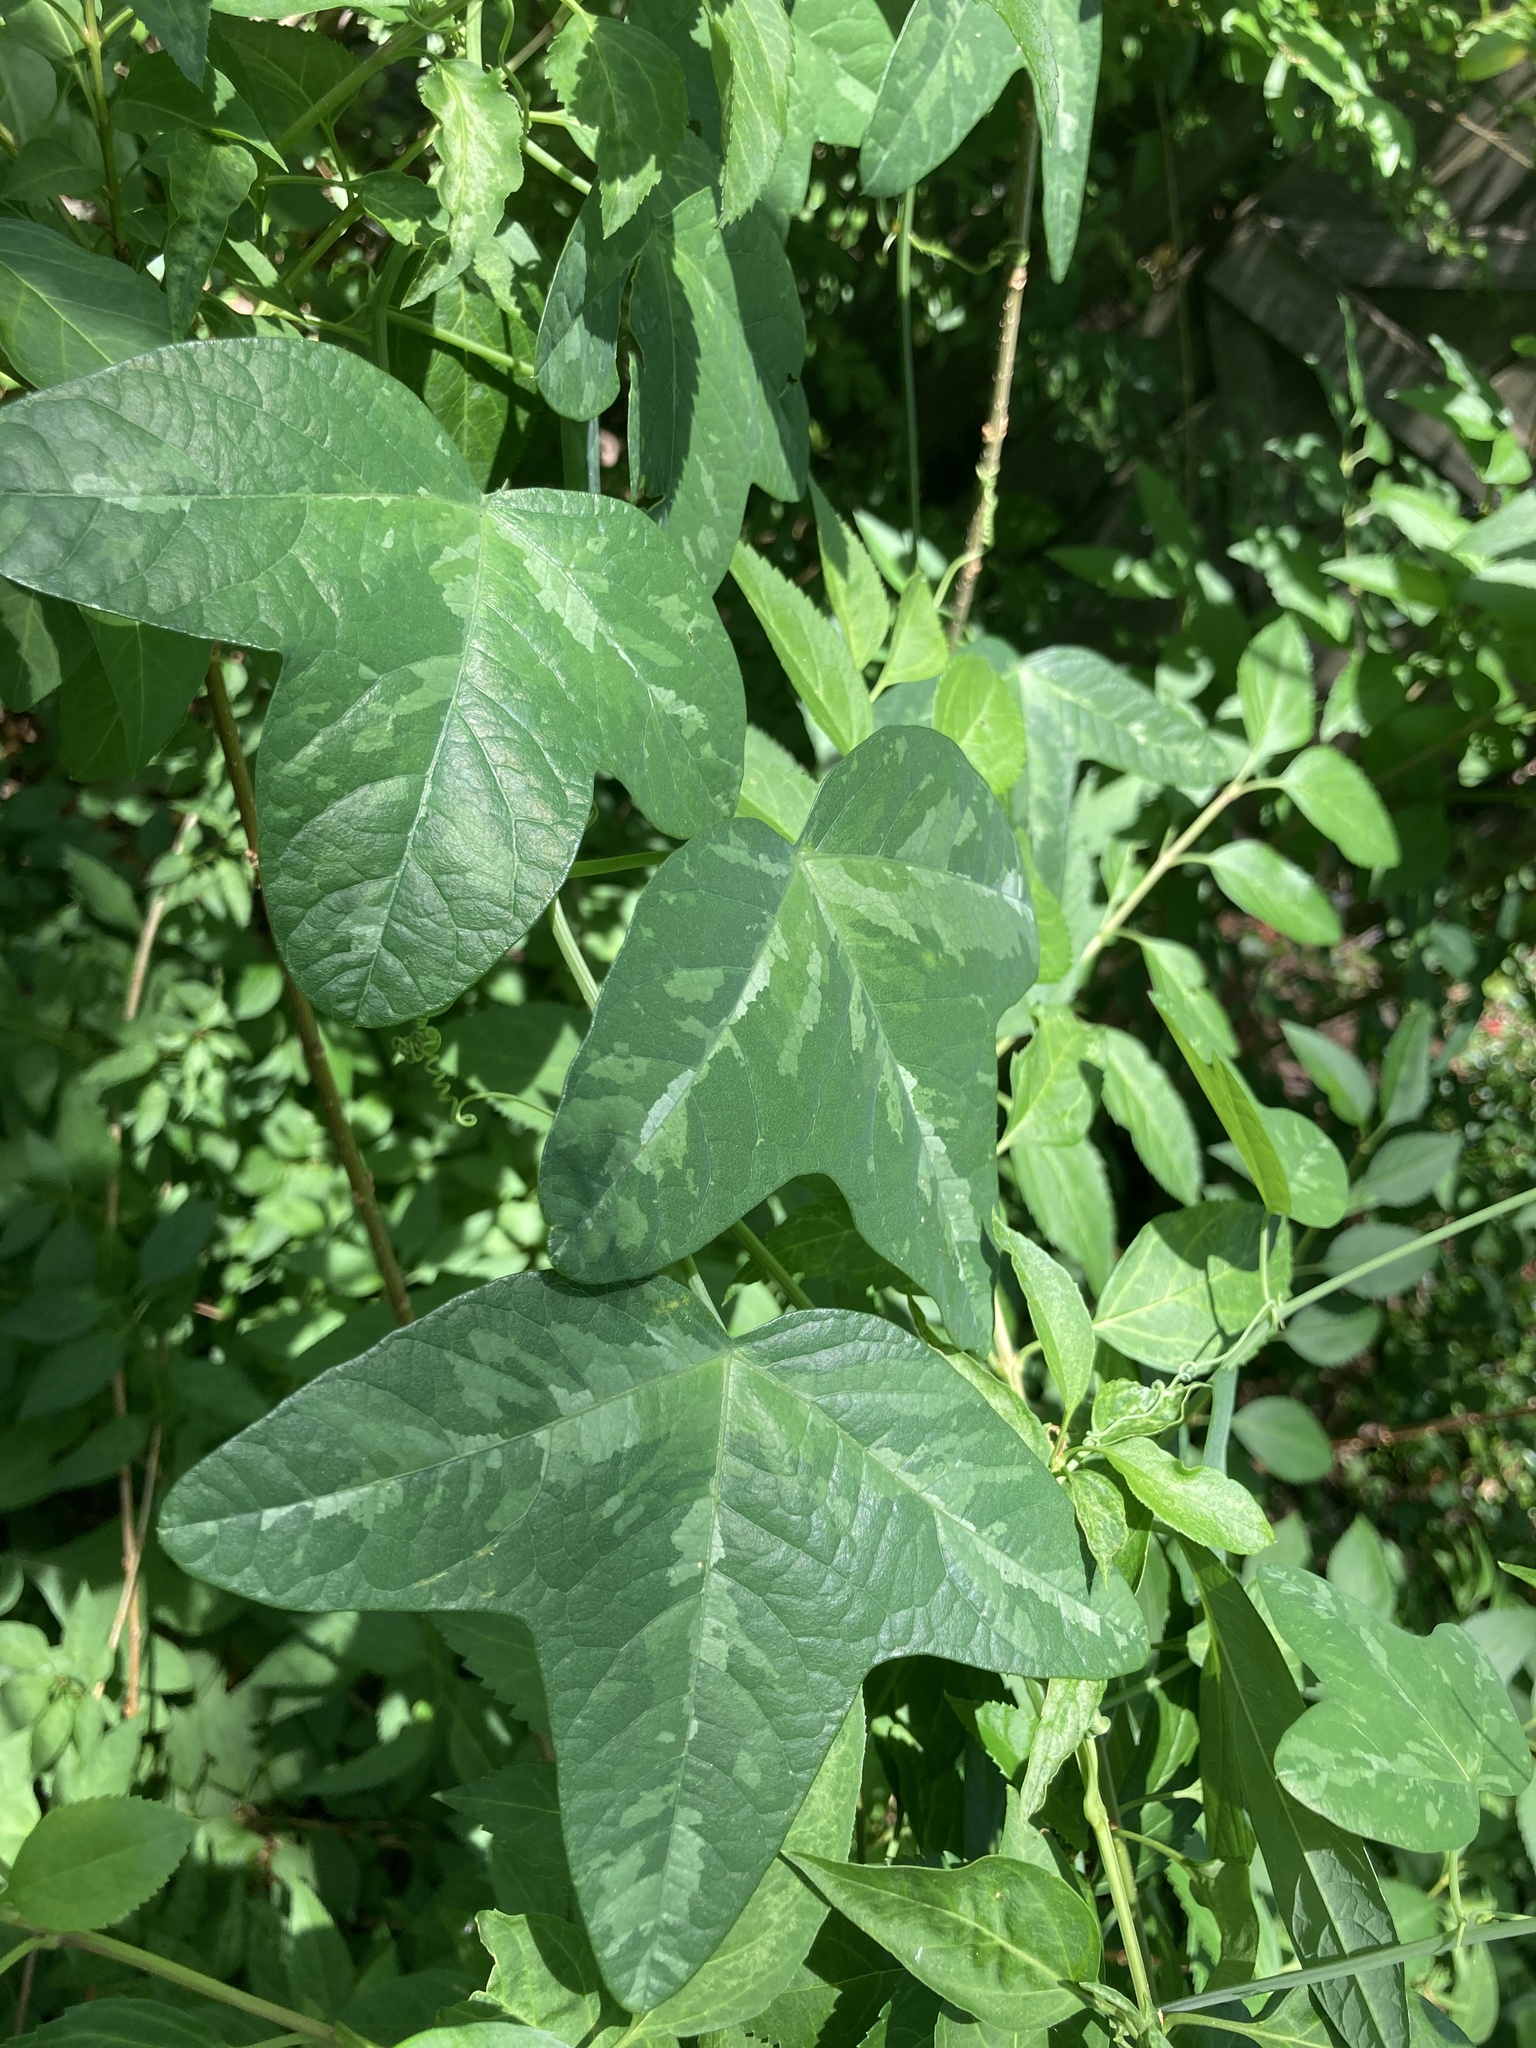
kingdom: Plantae
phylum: Tracheophyta
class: Magnoliopsida
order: Malpighiales
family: Passifloraceae
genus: Passiflora
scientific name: Passiflora lutea
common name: Yellow passionflower
